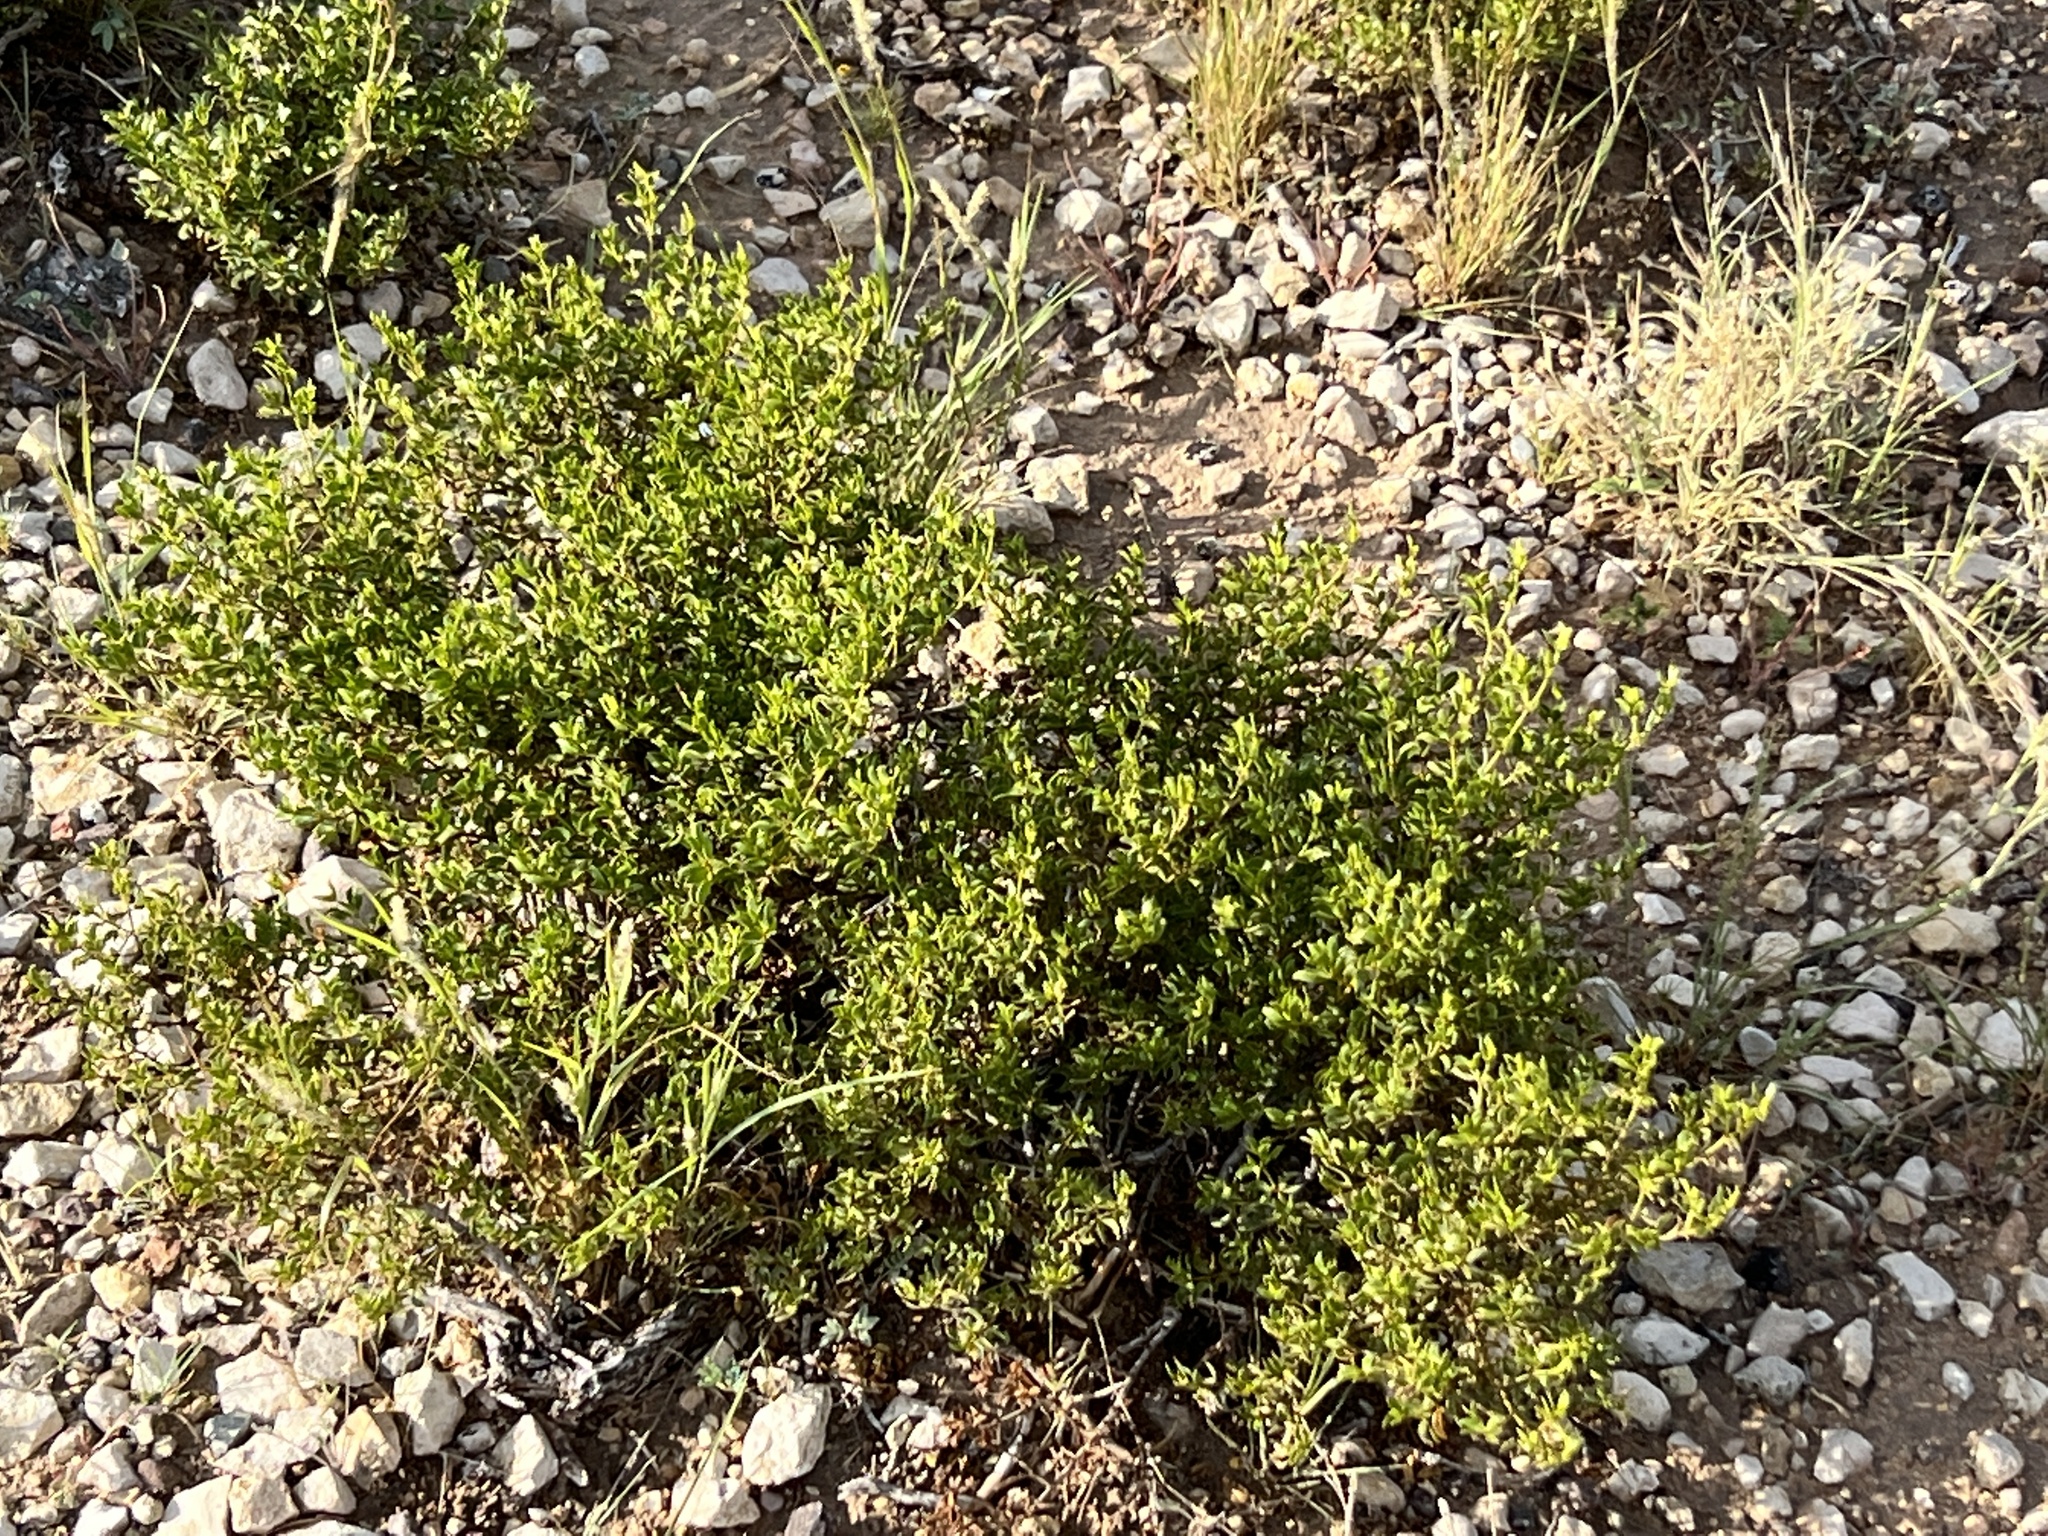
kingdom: Plantae
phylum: Tracheophyta
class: Magnoliopsida
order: Zygophyllales
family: Zygophyllaceae
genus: Larrea
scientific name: Larrea tridentata
